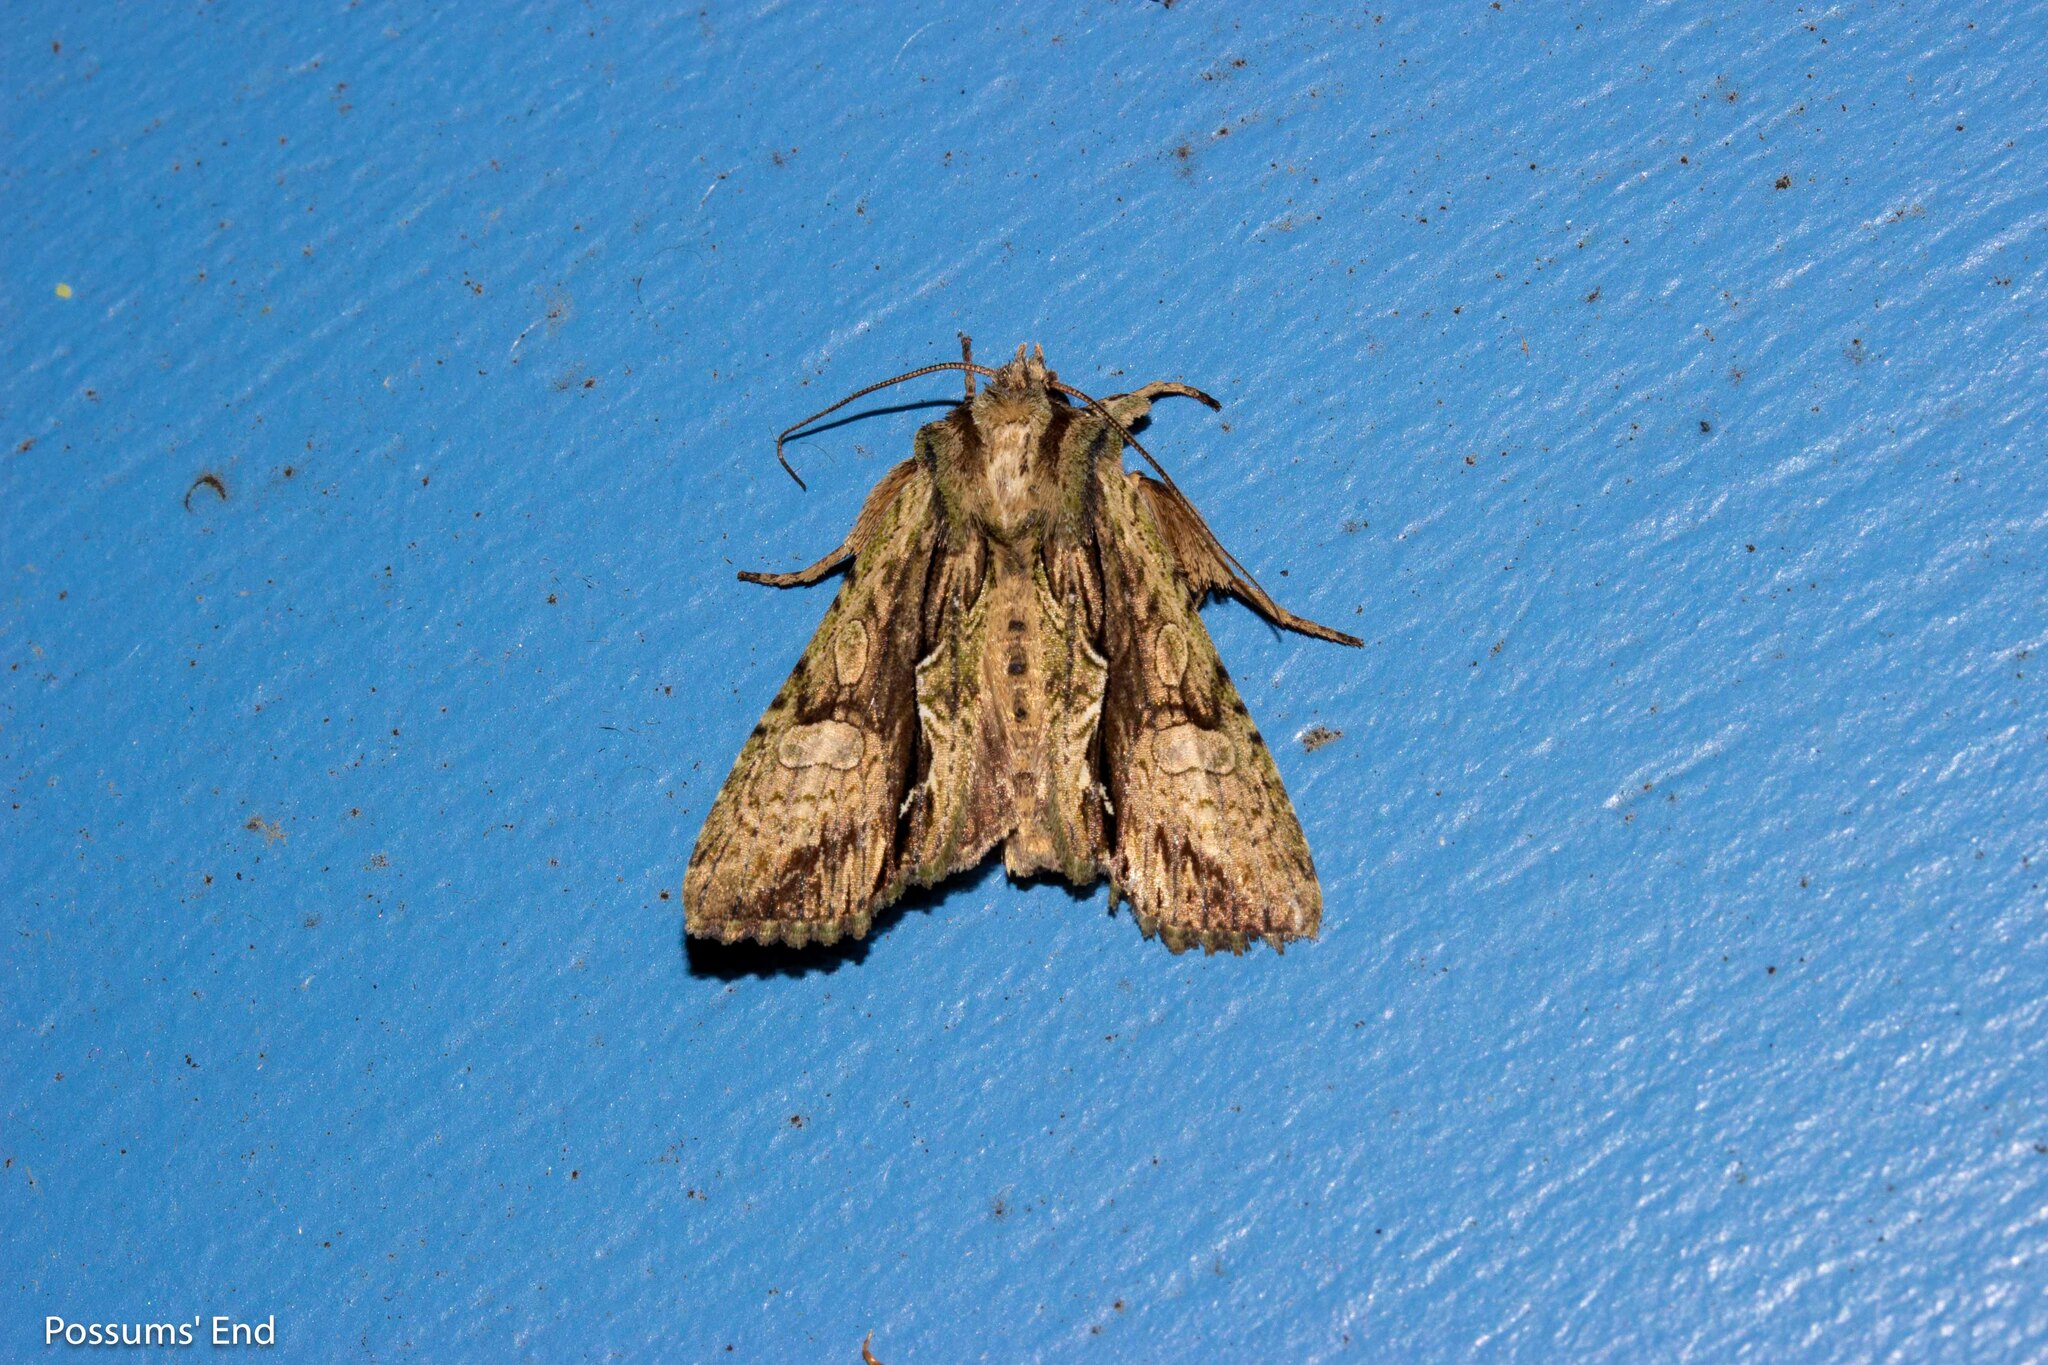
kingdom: Animalia
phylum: Arthropoda
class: Insecta
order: Lepidoptera
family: Noctuidae
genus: Meterana
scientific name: Meterana decorata
